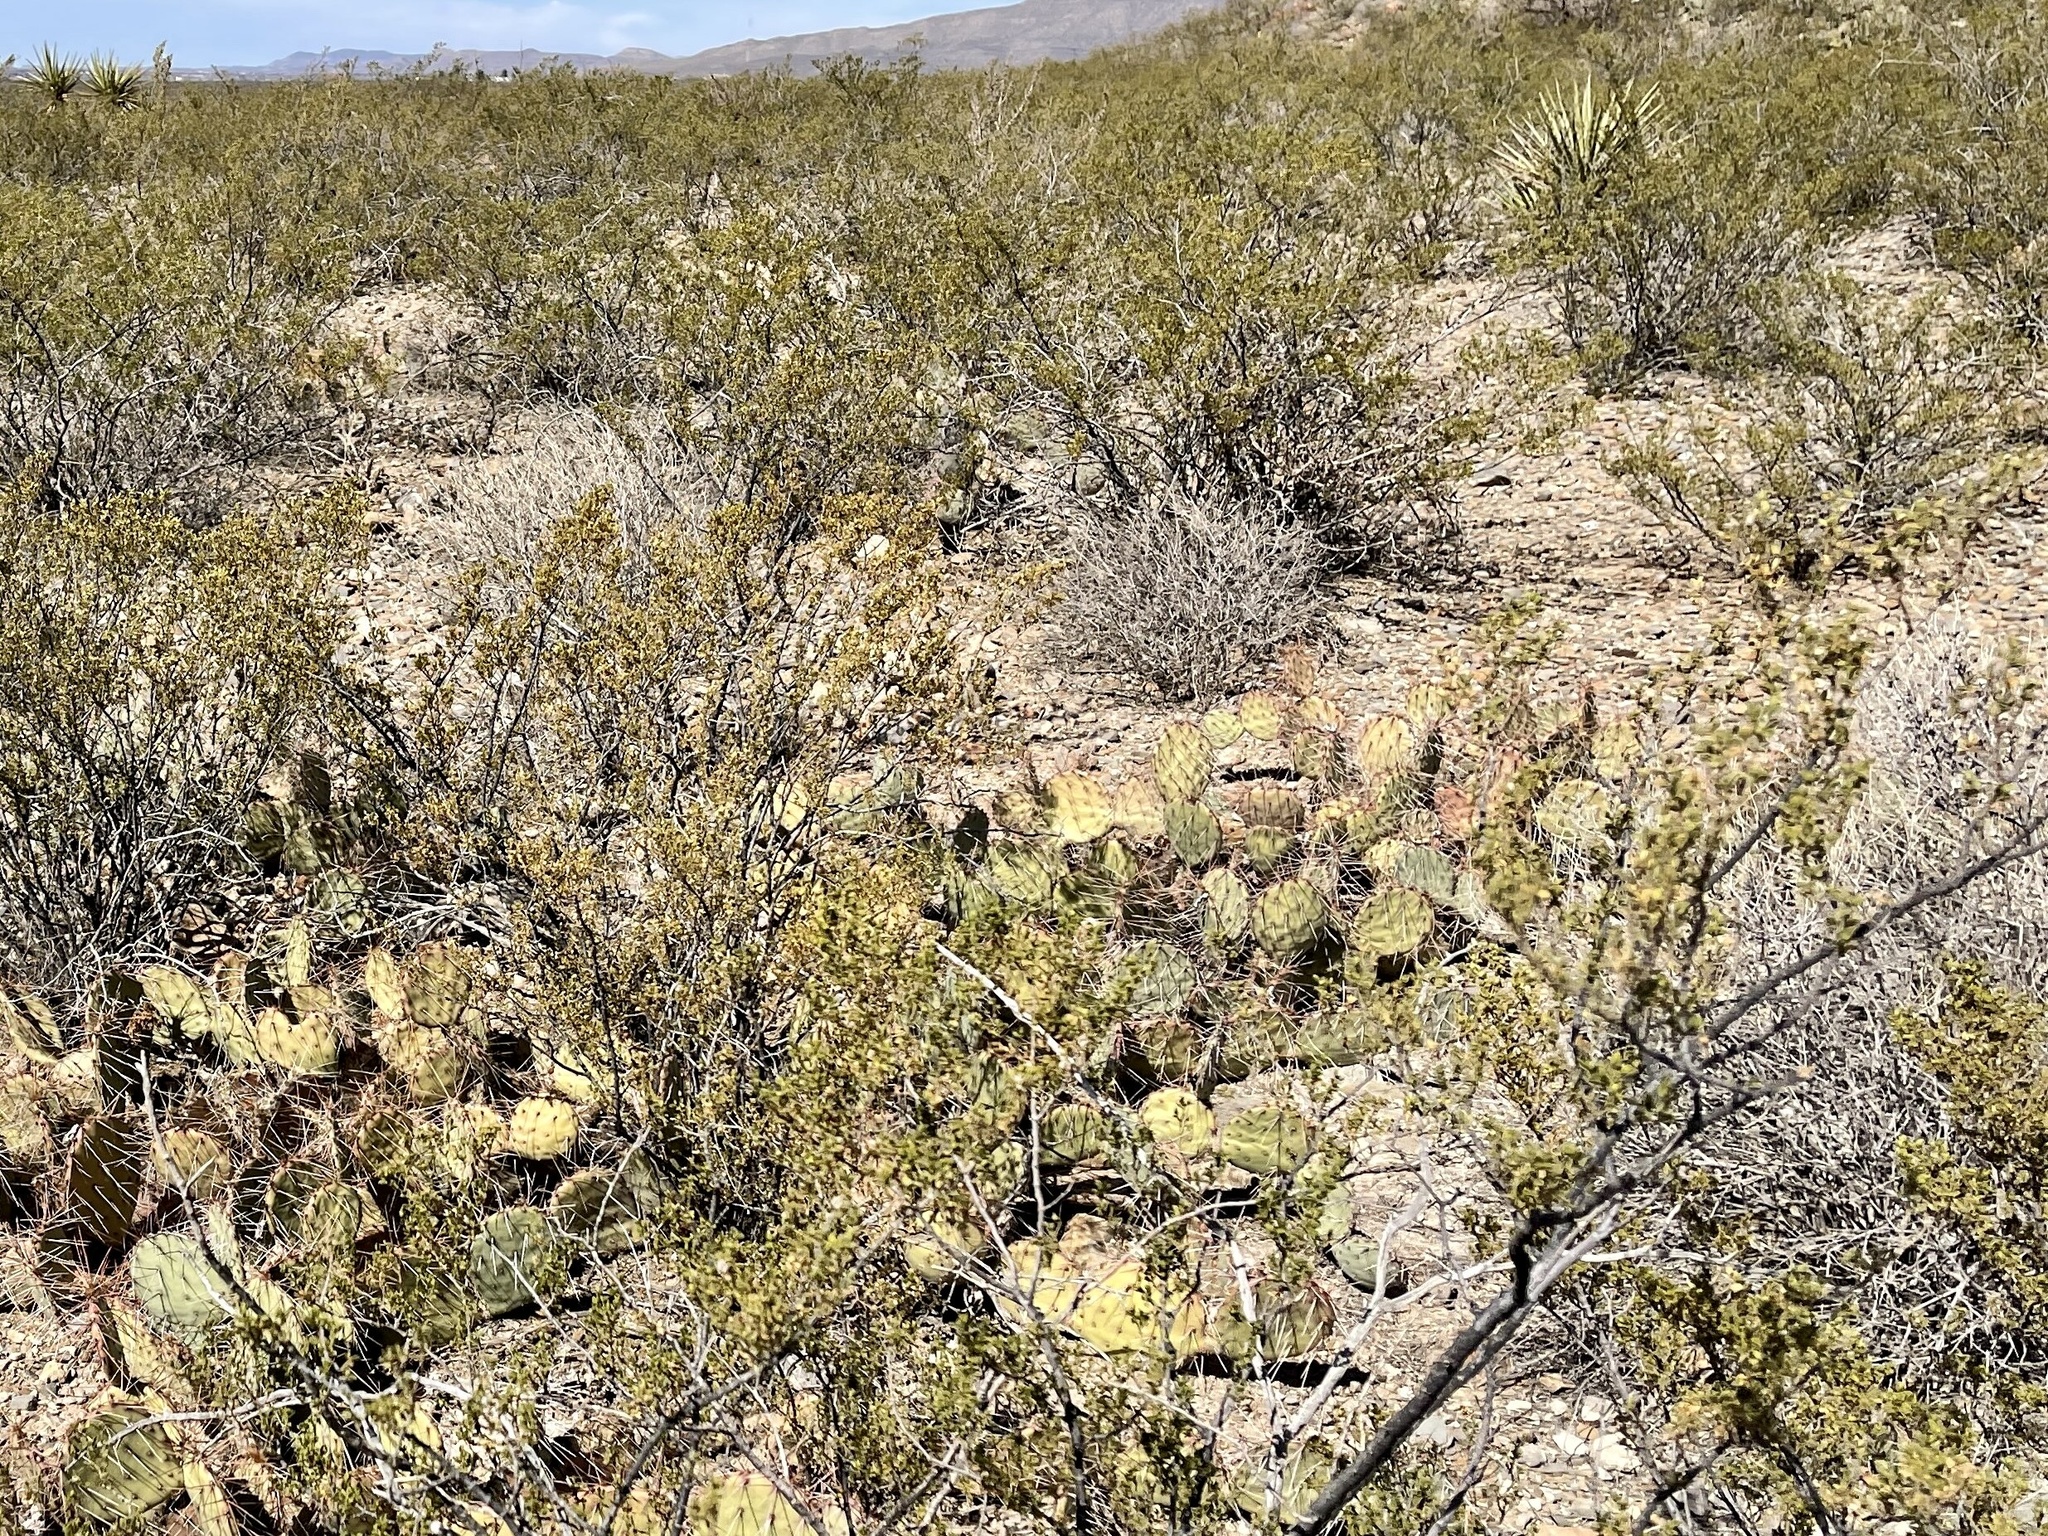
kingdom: Plantae
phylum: Tracheophyta
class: Magnoliopsida
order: Zygophyllales
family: Zygophyllaceae
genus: Larrea
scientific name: Larrea tridentata
